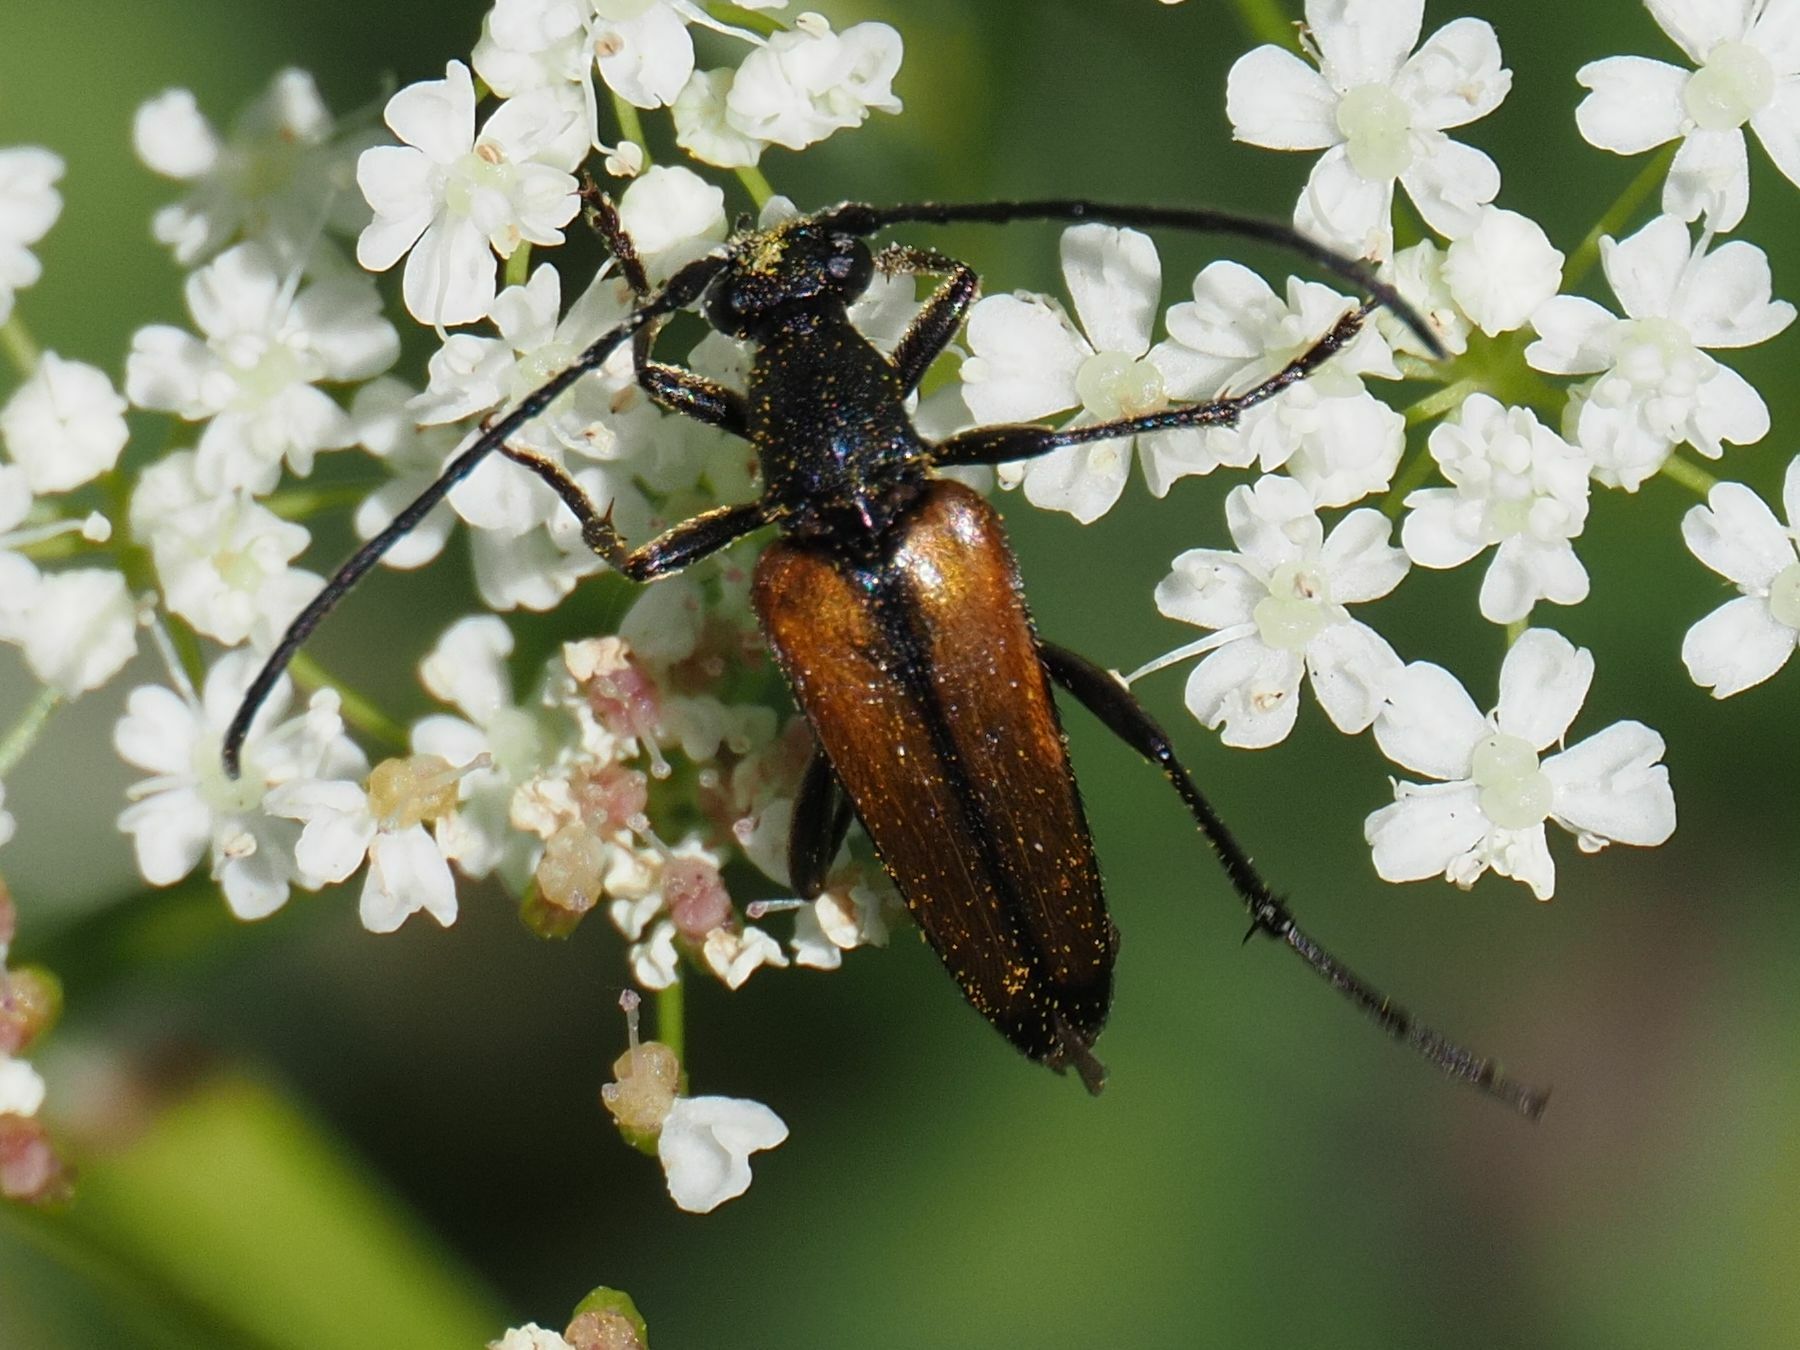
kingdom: Animalia
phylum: Arthropoda
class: Insecta
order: Coleoptera
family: Cerambycidae
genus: Stenurella
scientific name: Stenurella melanura
